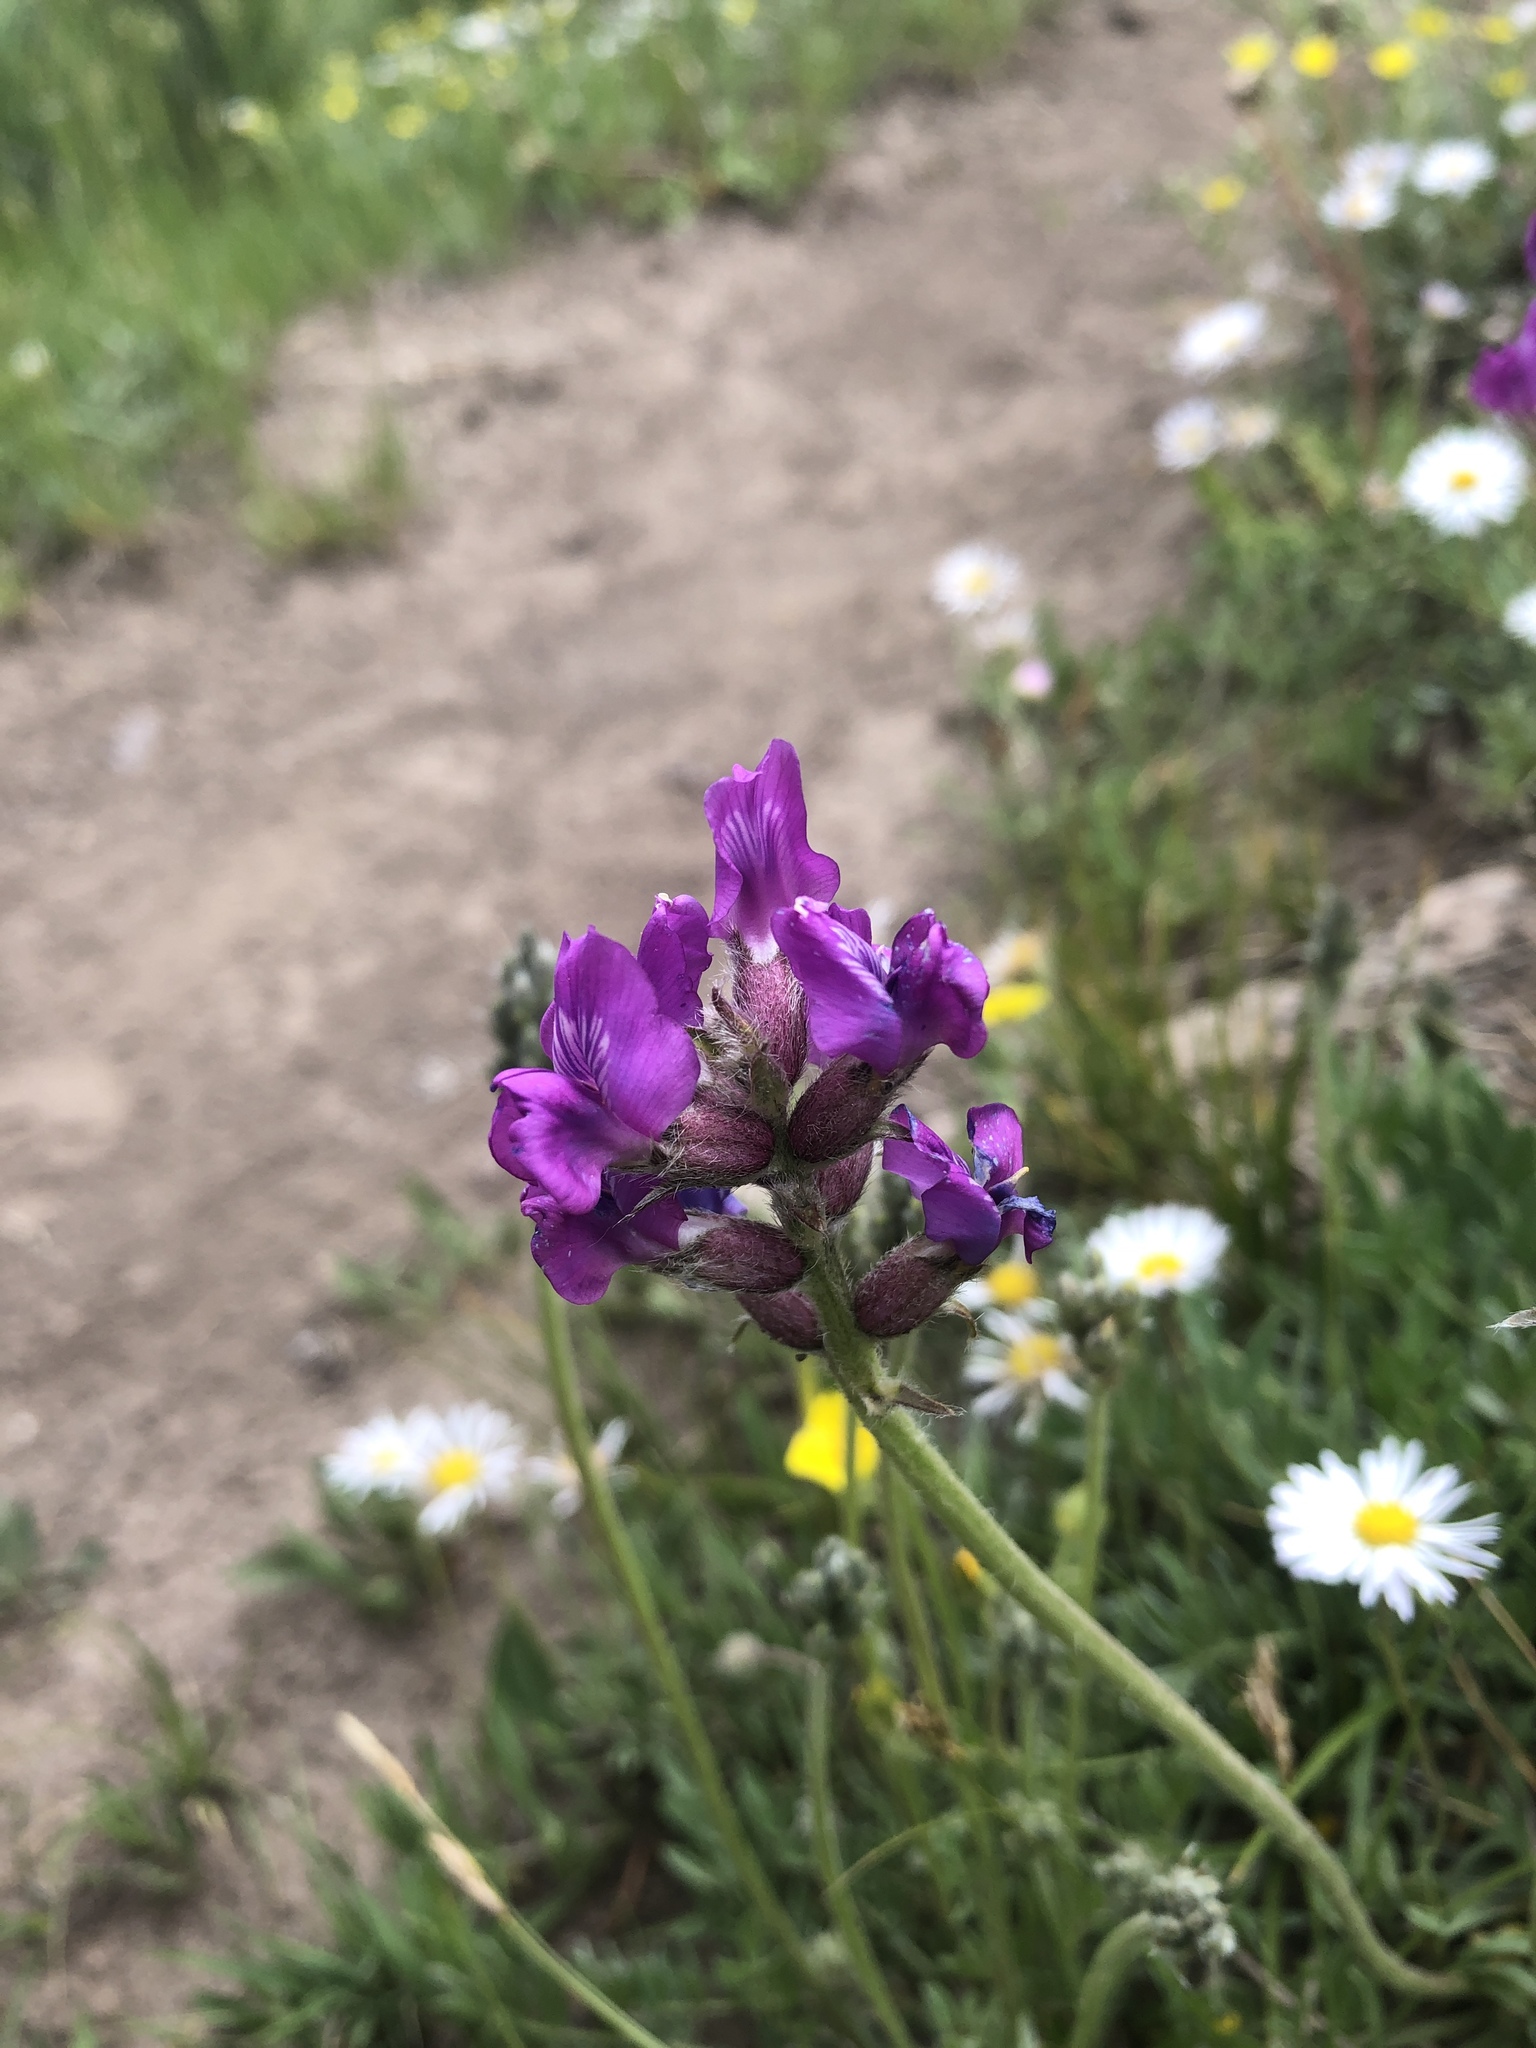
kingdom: Plantae
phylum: Tracheophyta
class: Magnoliopsida
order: Fabales
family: Fabaceae
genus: Oxytropis
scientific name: Oxytropis lambertii
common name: Purple locoweed
